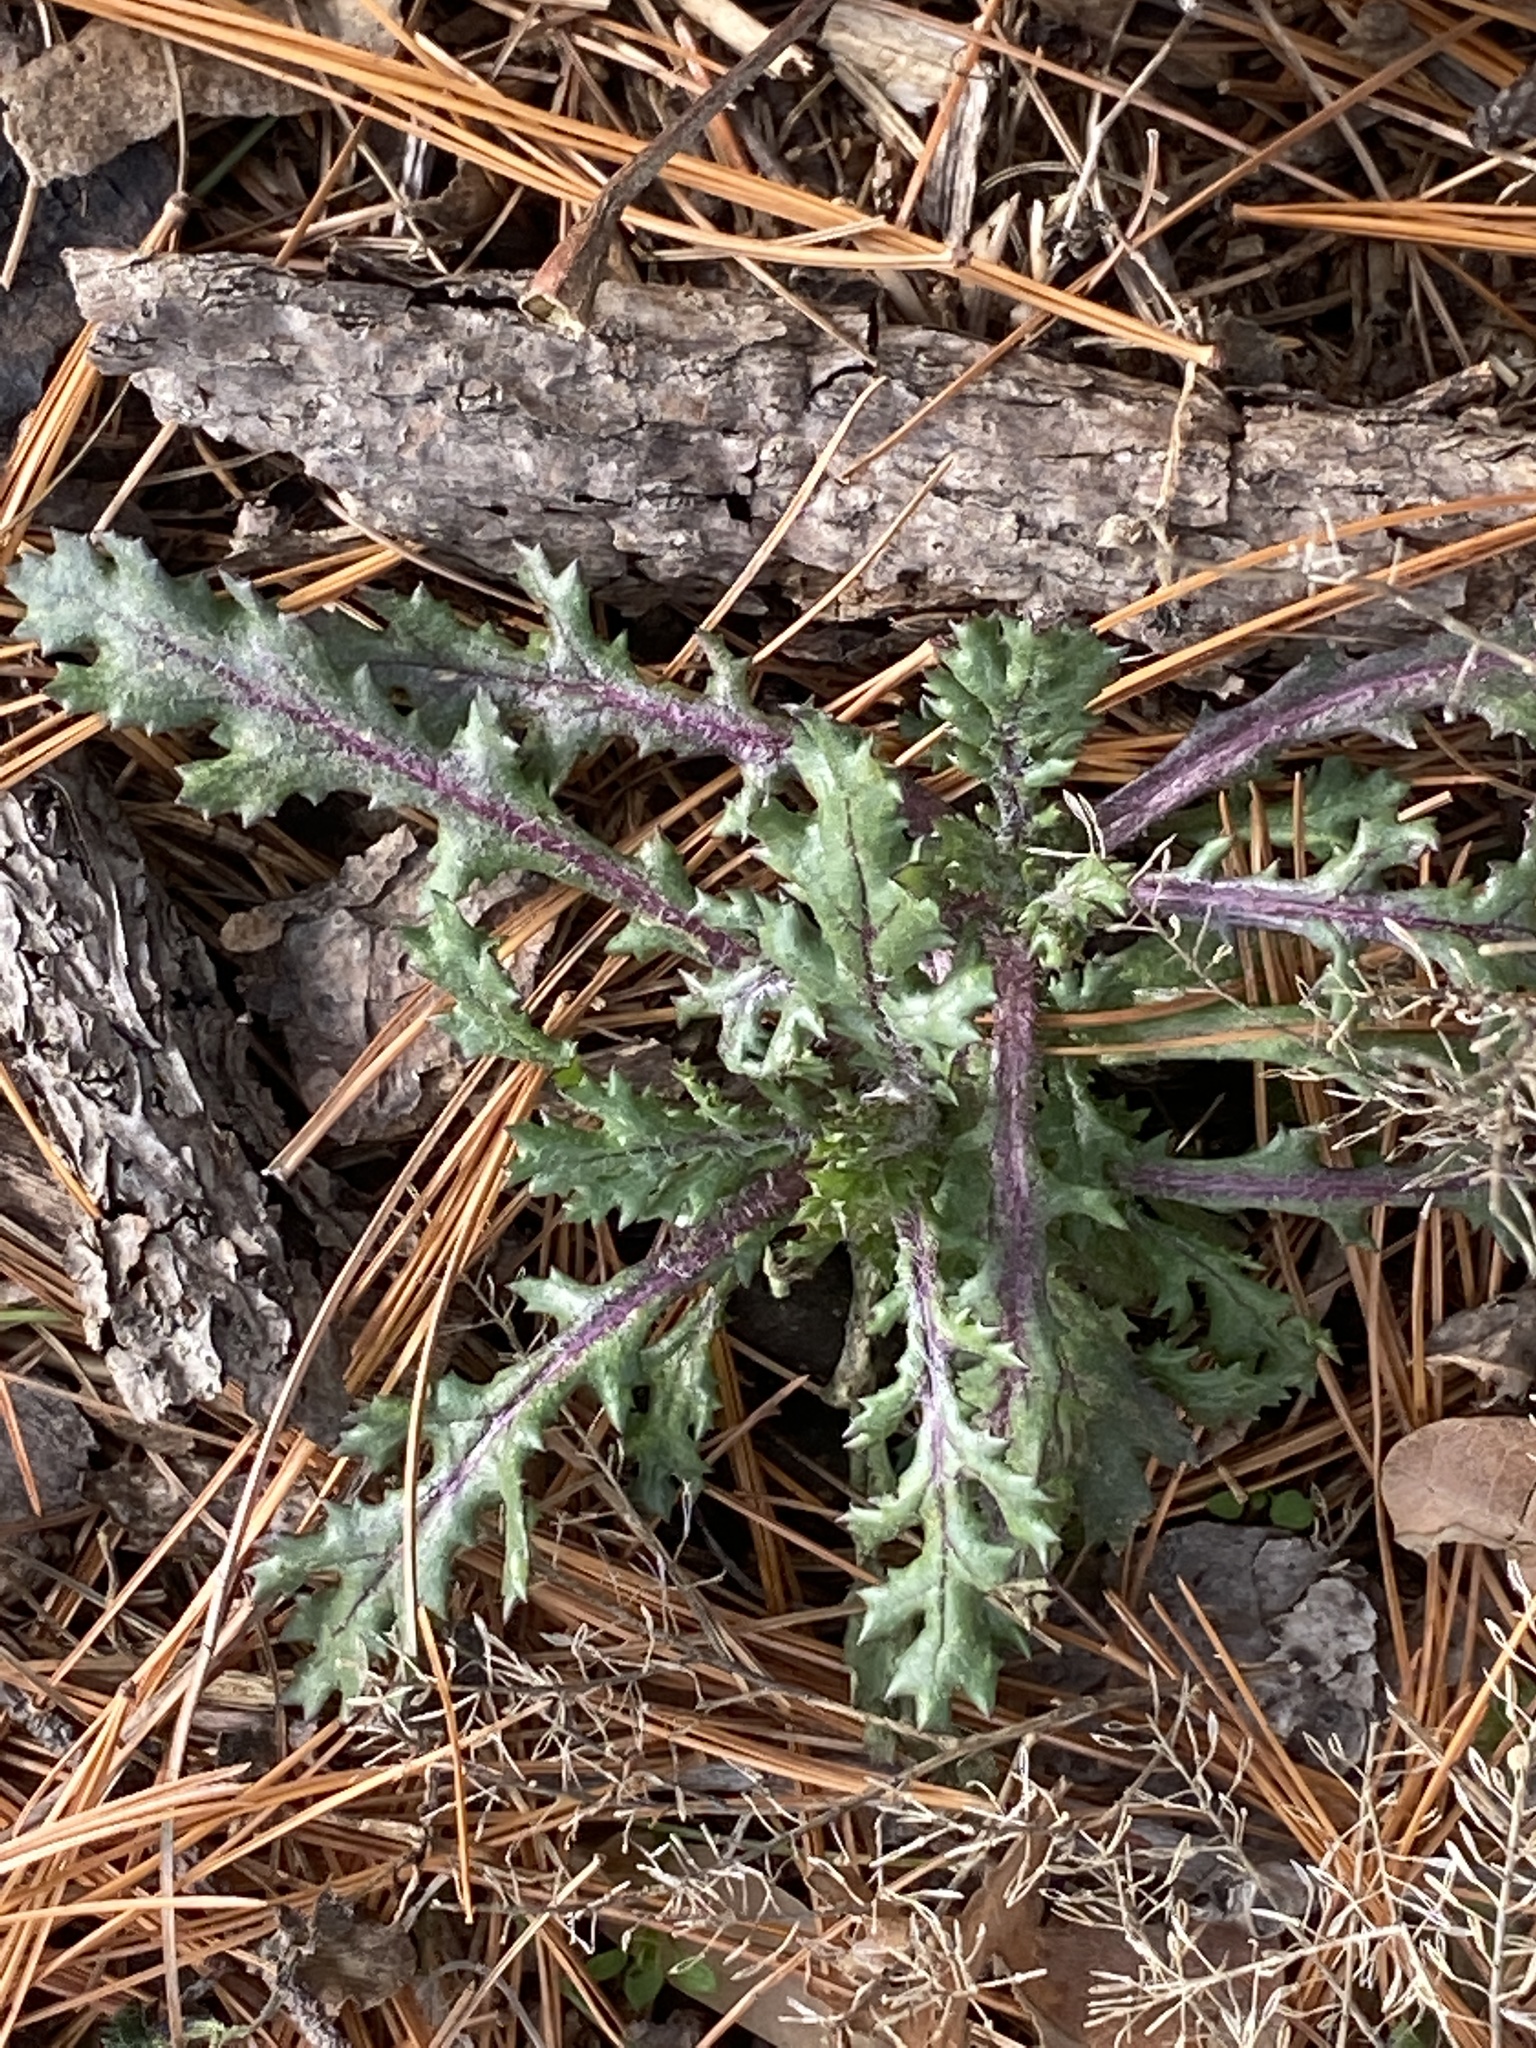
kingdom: Plantae
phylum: Tracheophyta
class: Magnoliopsida
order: Asterales
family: Asteraceae
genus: Senecio
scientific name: Senecio vulgaris
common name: Old-man-in-the-spring
